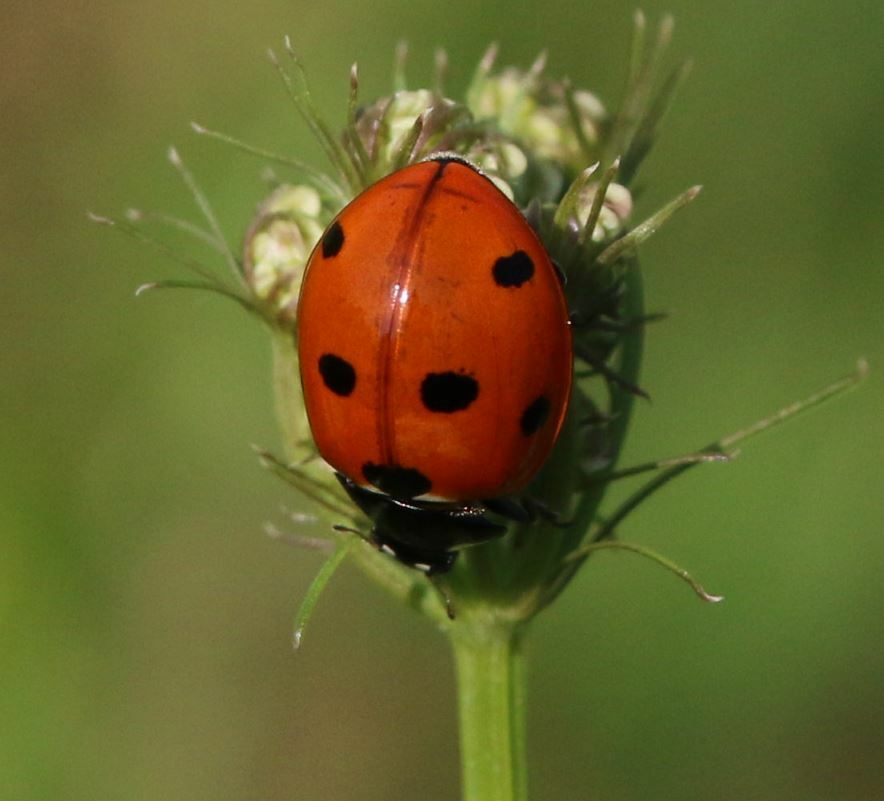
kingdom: Animalia
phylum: Arthropoda
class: Insecta
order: Coleoptera
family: Coccinellidae
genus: Coccinella
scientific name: Coccinella septempunctata
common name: Sevenspotted lady beetle
